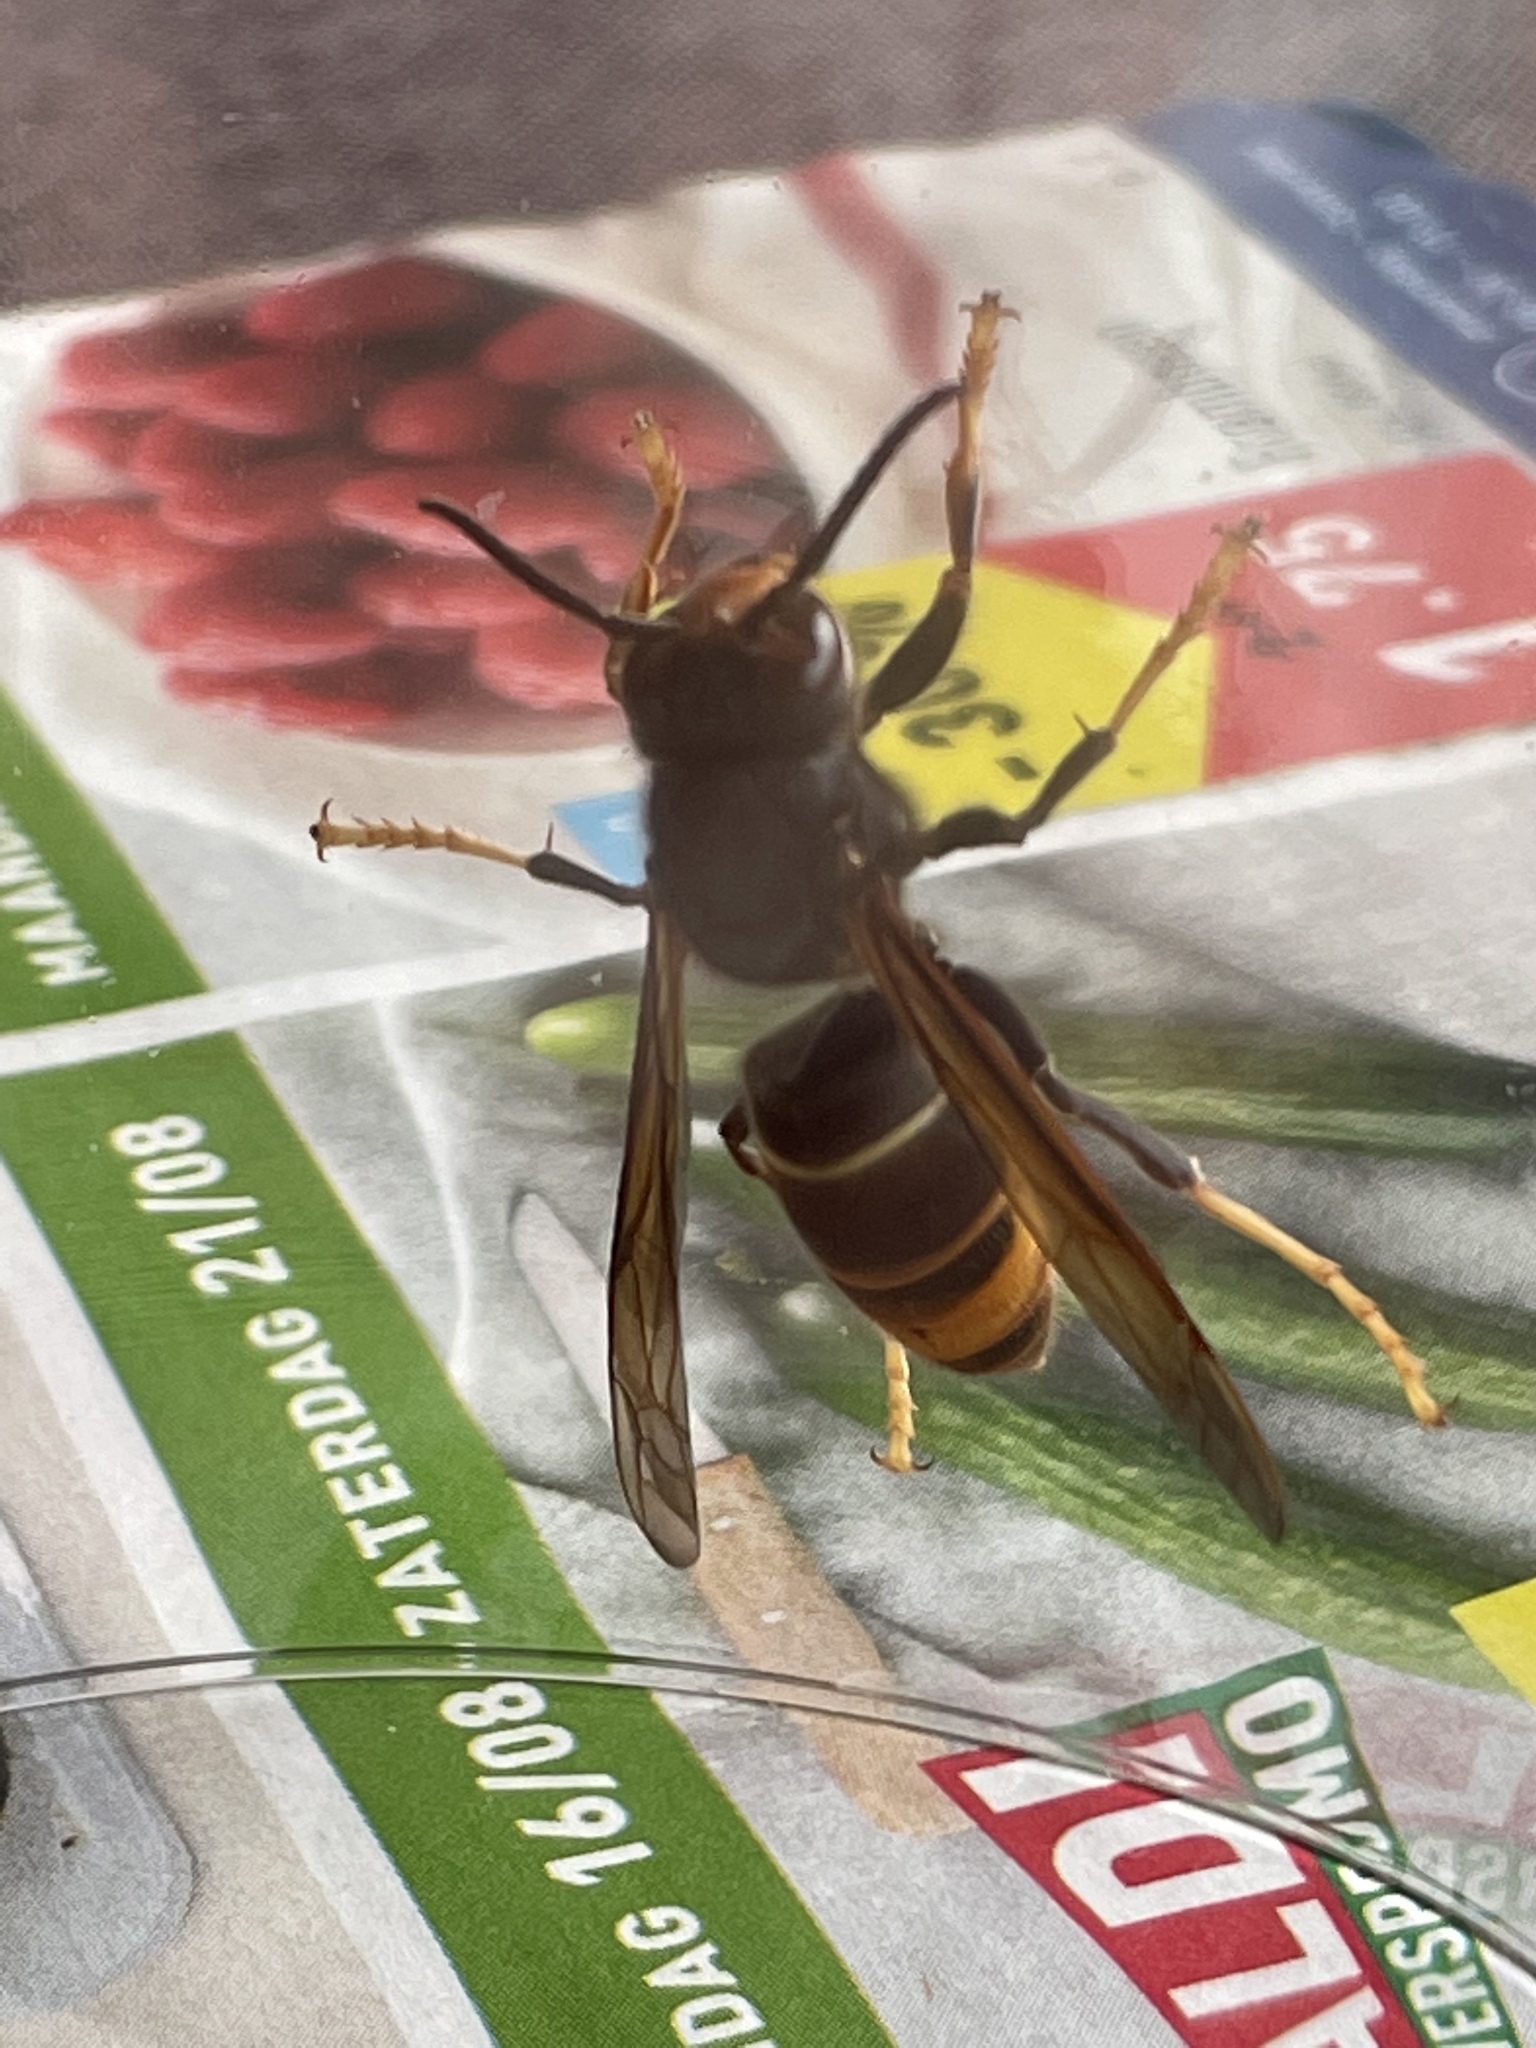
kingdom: Animalia
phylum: Arthropoda
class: Insecta
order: Hymenoptera
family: Vespidae
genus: Vespa
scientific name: Vespa velutina
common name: Asian hornet
